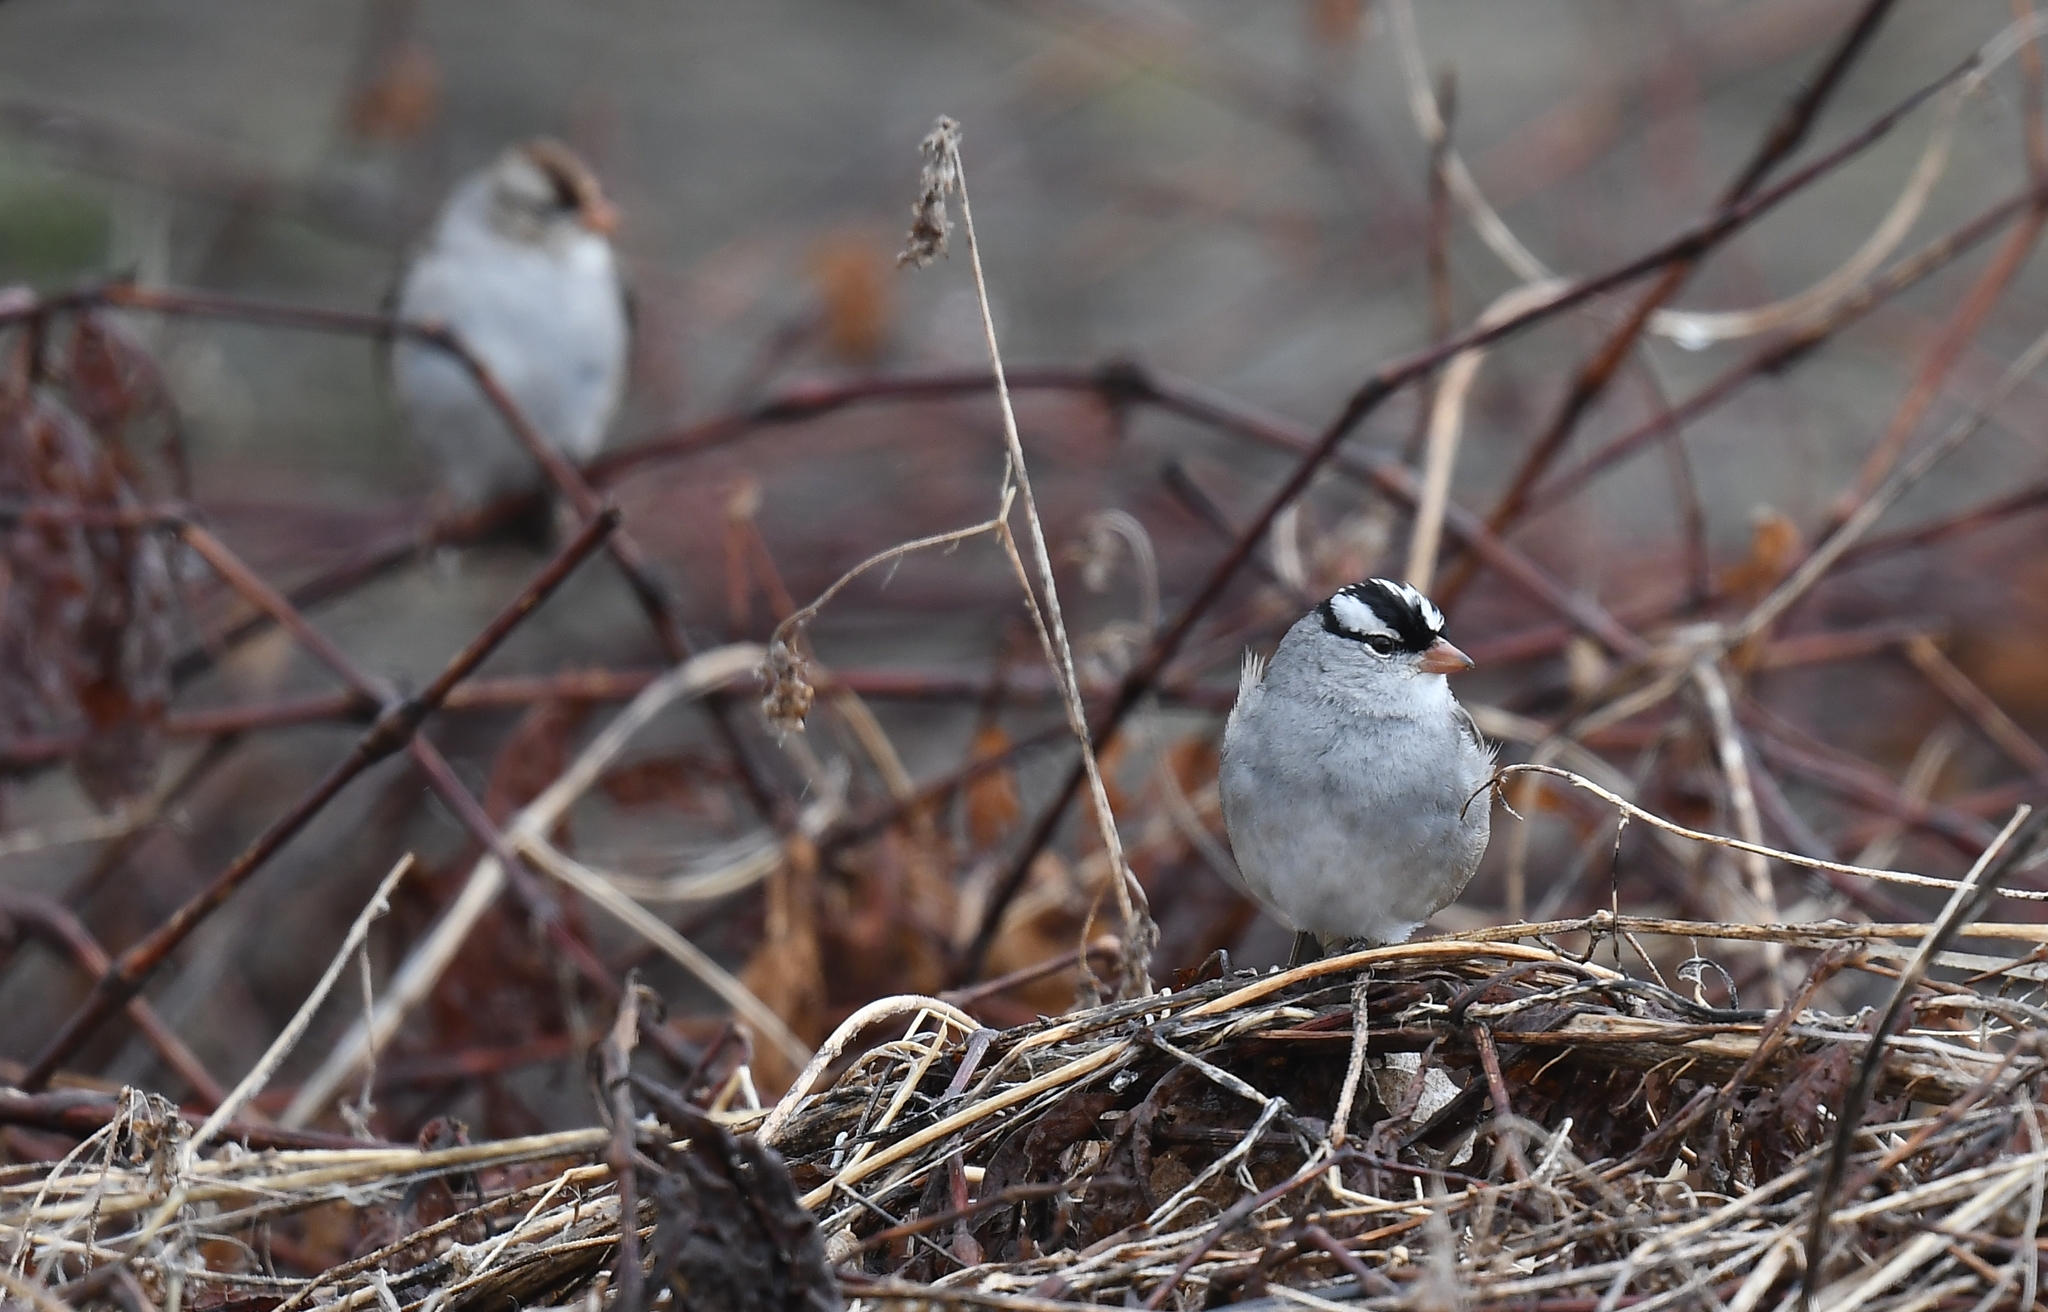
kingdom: Animalia
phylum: Chordata
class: Aves
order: Passeriformes
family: Passerellidae
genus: Zonotrichia
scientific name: Zonotrichia leucophrys
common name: White-crowned sparrow
